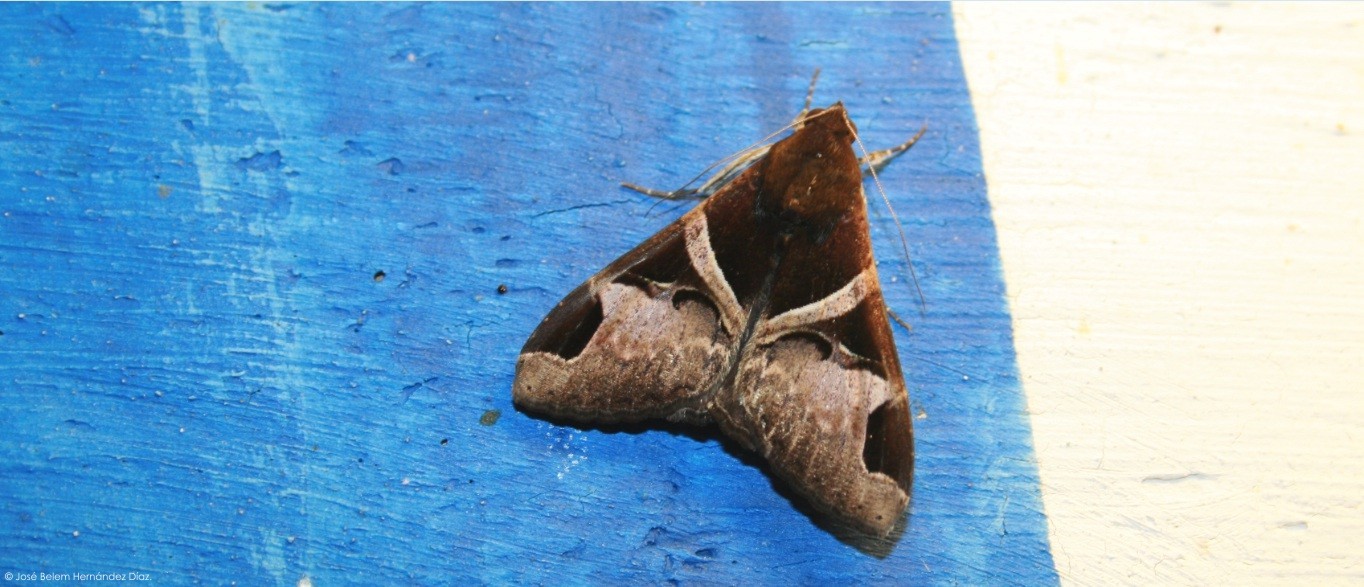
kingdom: Animalia
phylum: Arthropoda
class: Insecta
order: Lepidoptera
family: Erebidae
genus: Melipotis
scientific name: Melipotis fasciolaris
